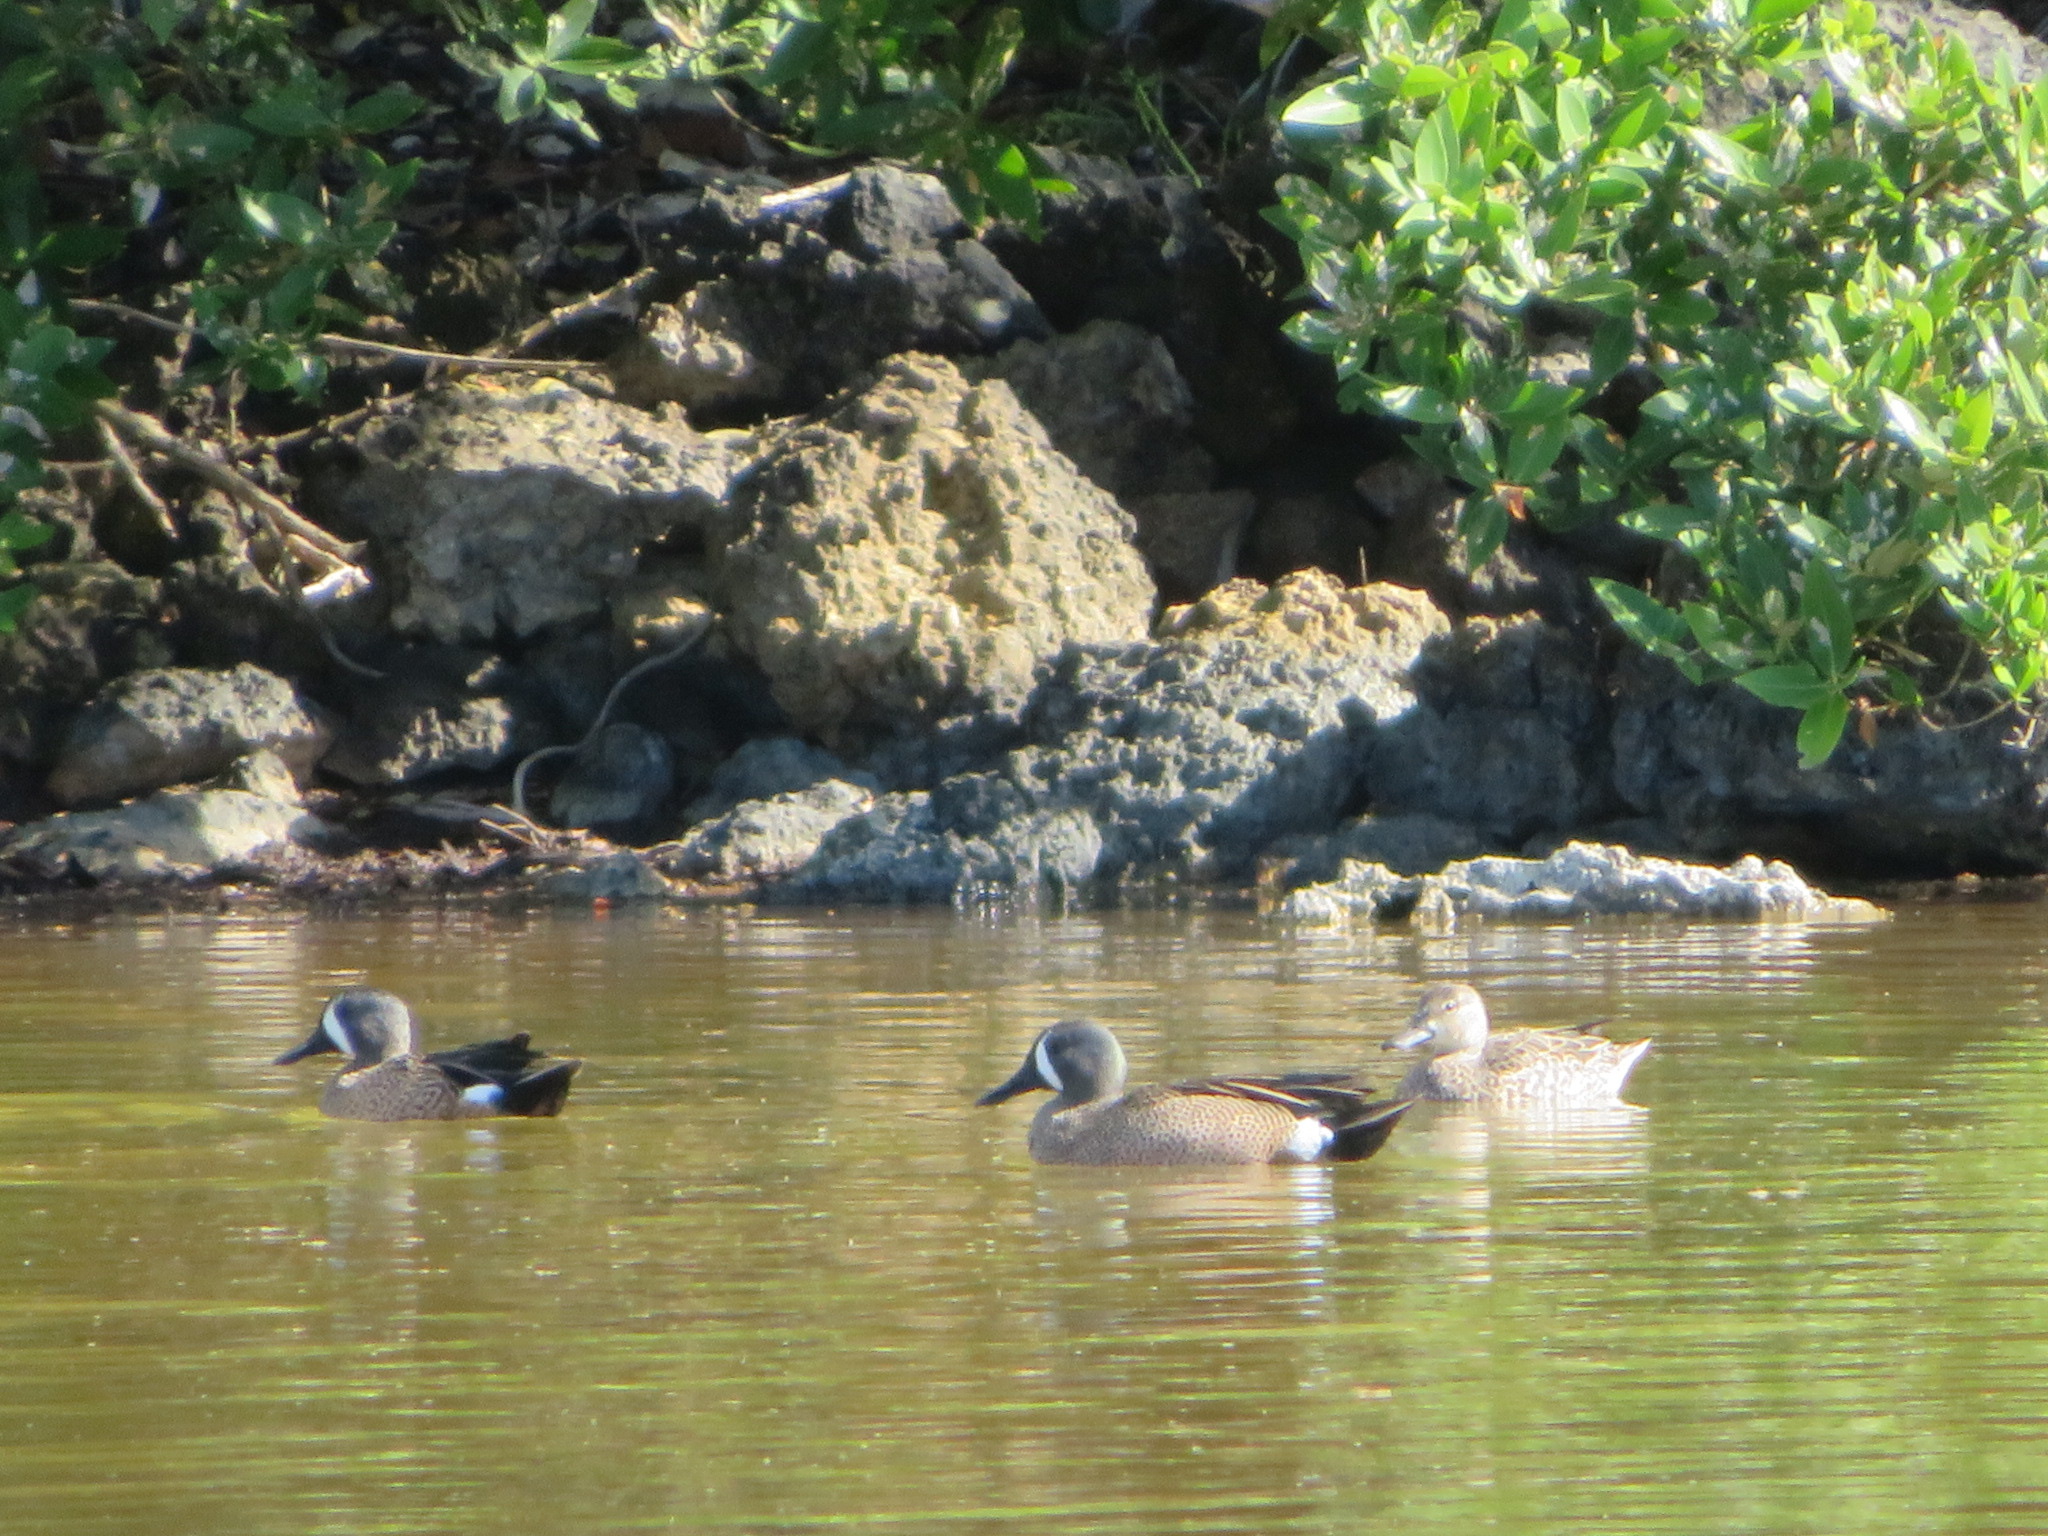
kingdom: Animalia
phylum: Chordata
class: Aves
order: Anseriformes
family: Anatidae
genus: Spatula
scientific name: Spatula discors
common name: Blue-winged teal
